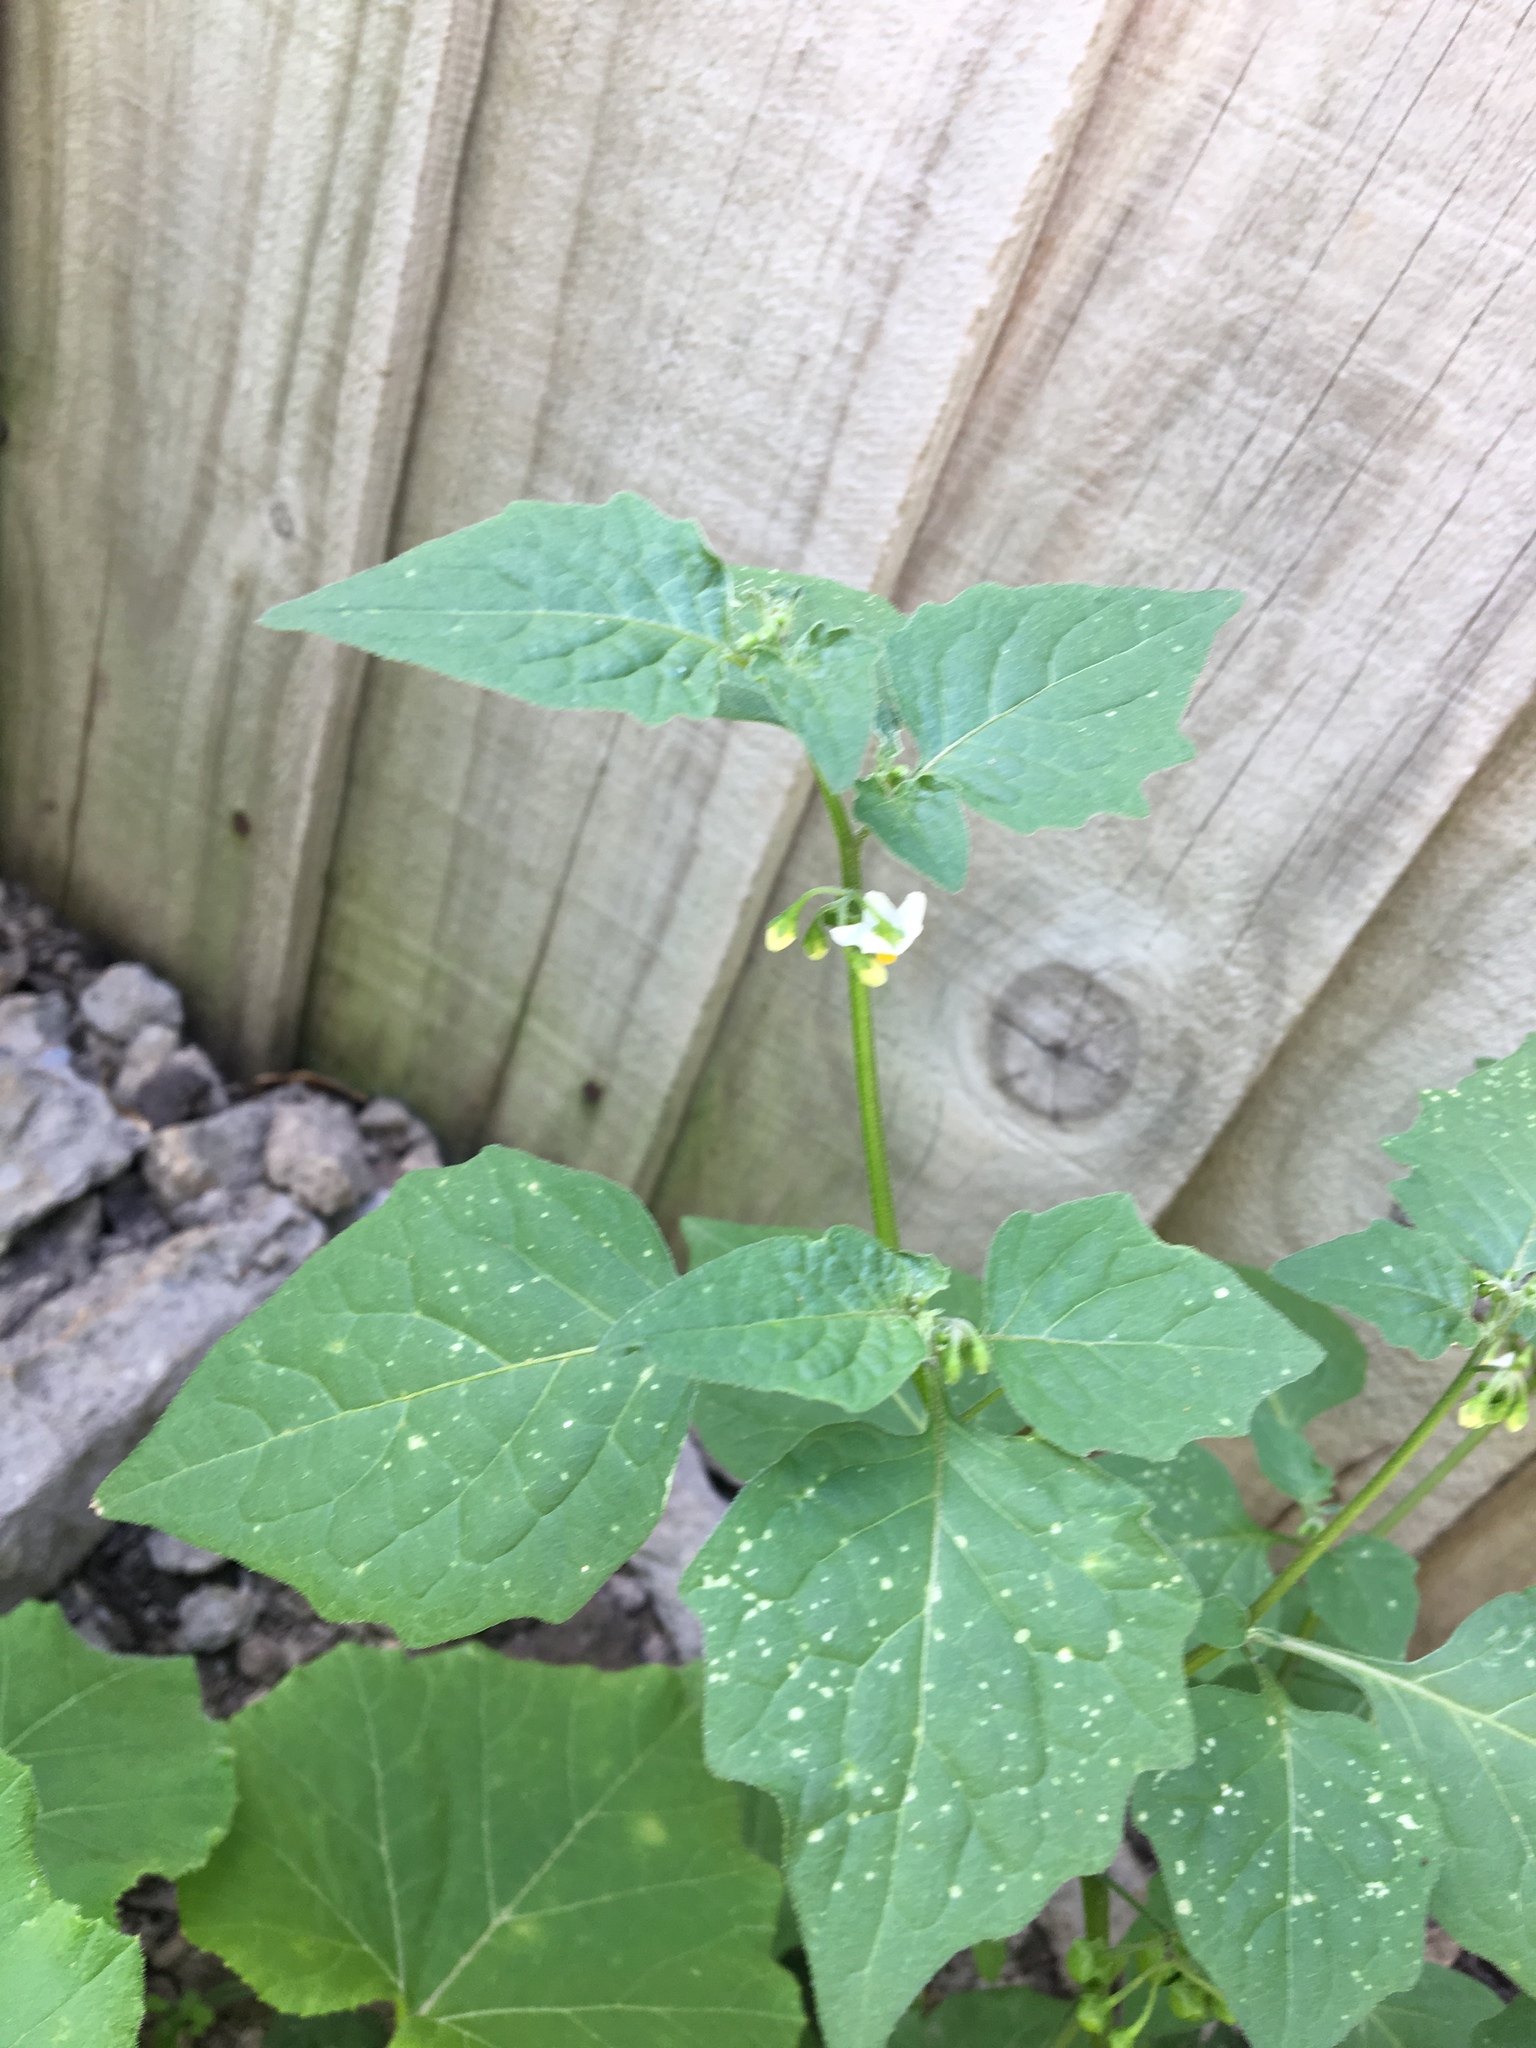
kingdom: Plantae
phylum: Tracheophyta
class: Magnoliopsida
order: Solanales
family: Solanaceae
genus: Solanum
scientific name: Solanum nigrum
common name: Black nightshade
